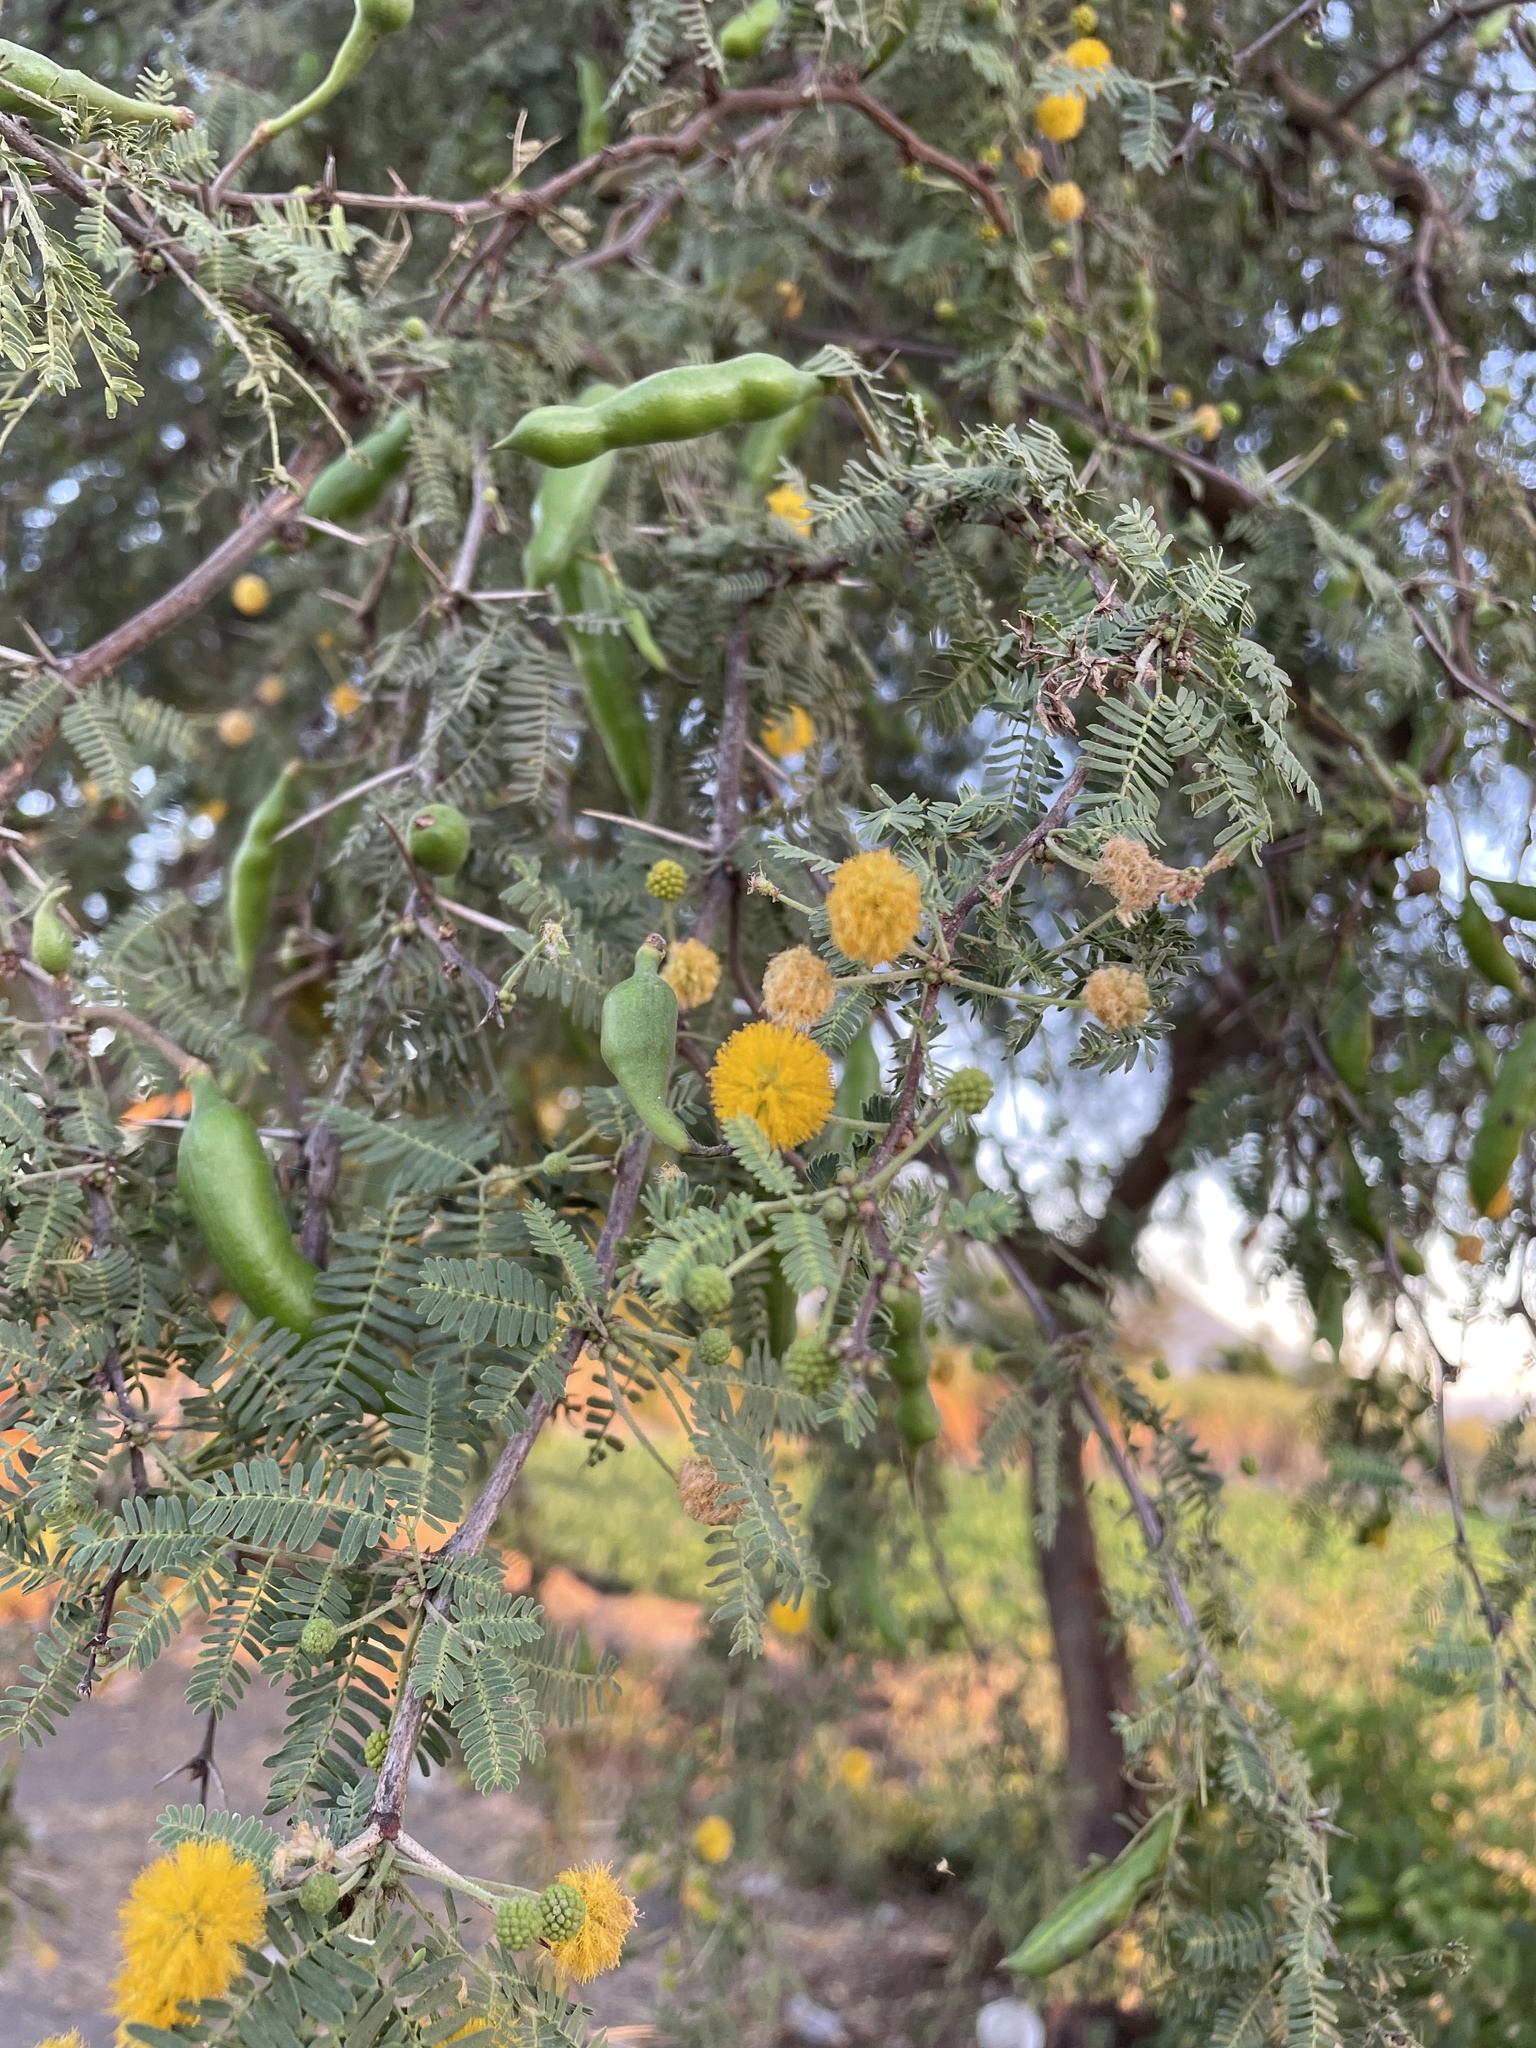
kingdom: Plantae
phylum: Tracheophyta
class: Magnoliopsida
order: Fabales
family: Fabaceae
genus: Vachellia
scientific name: Vachellia farnesiana
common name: Sweet acacia
